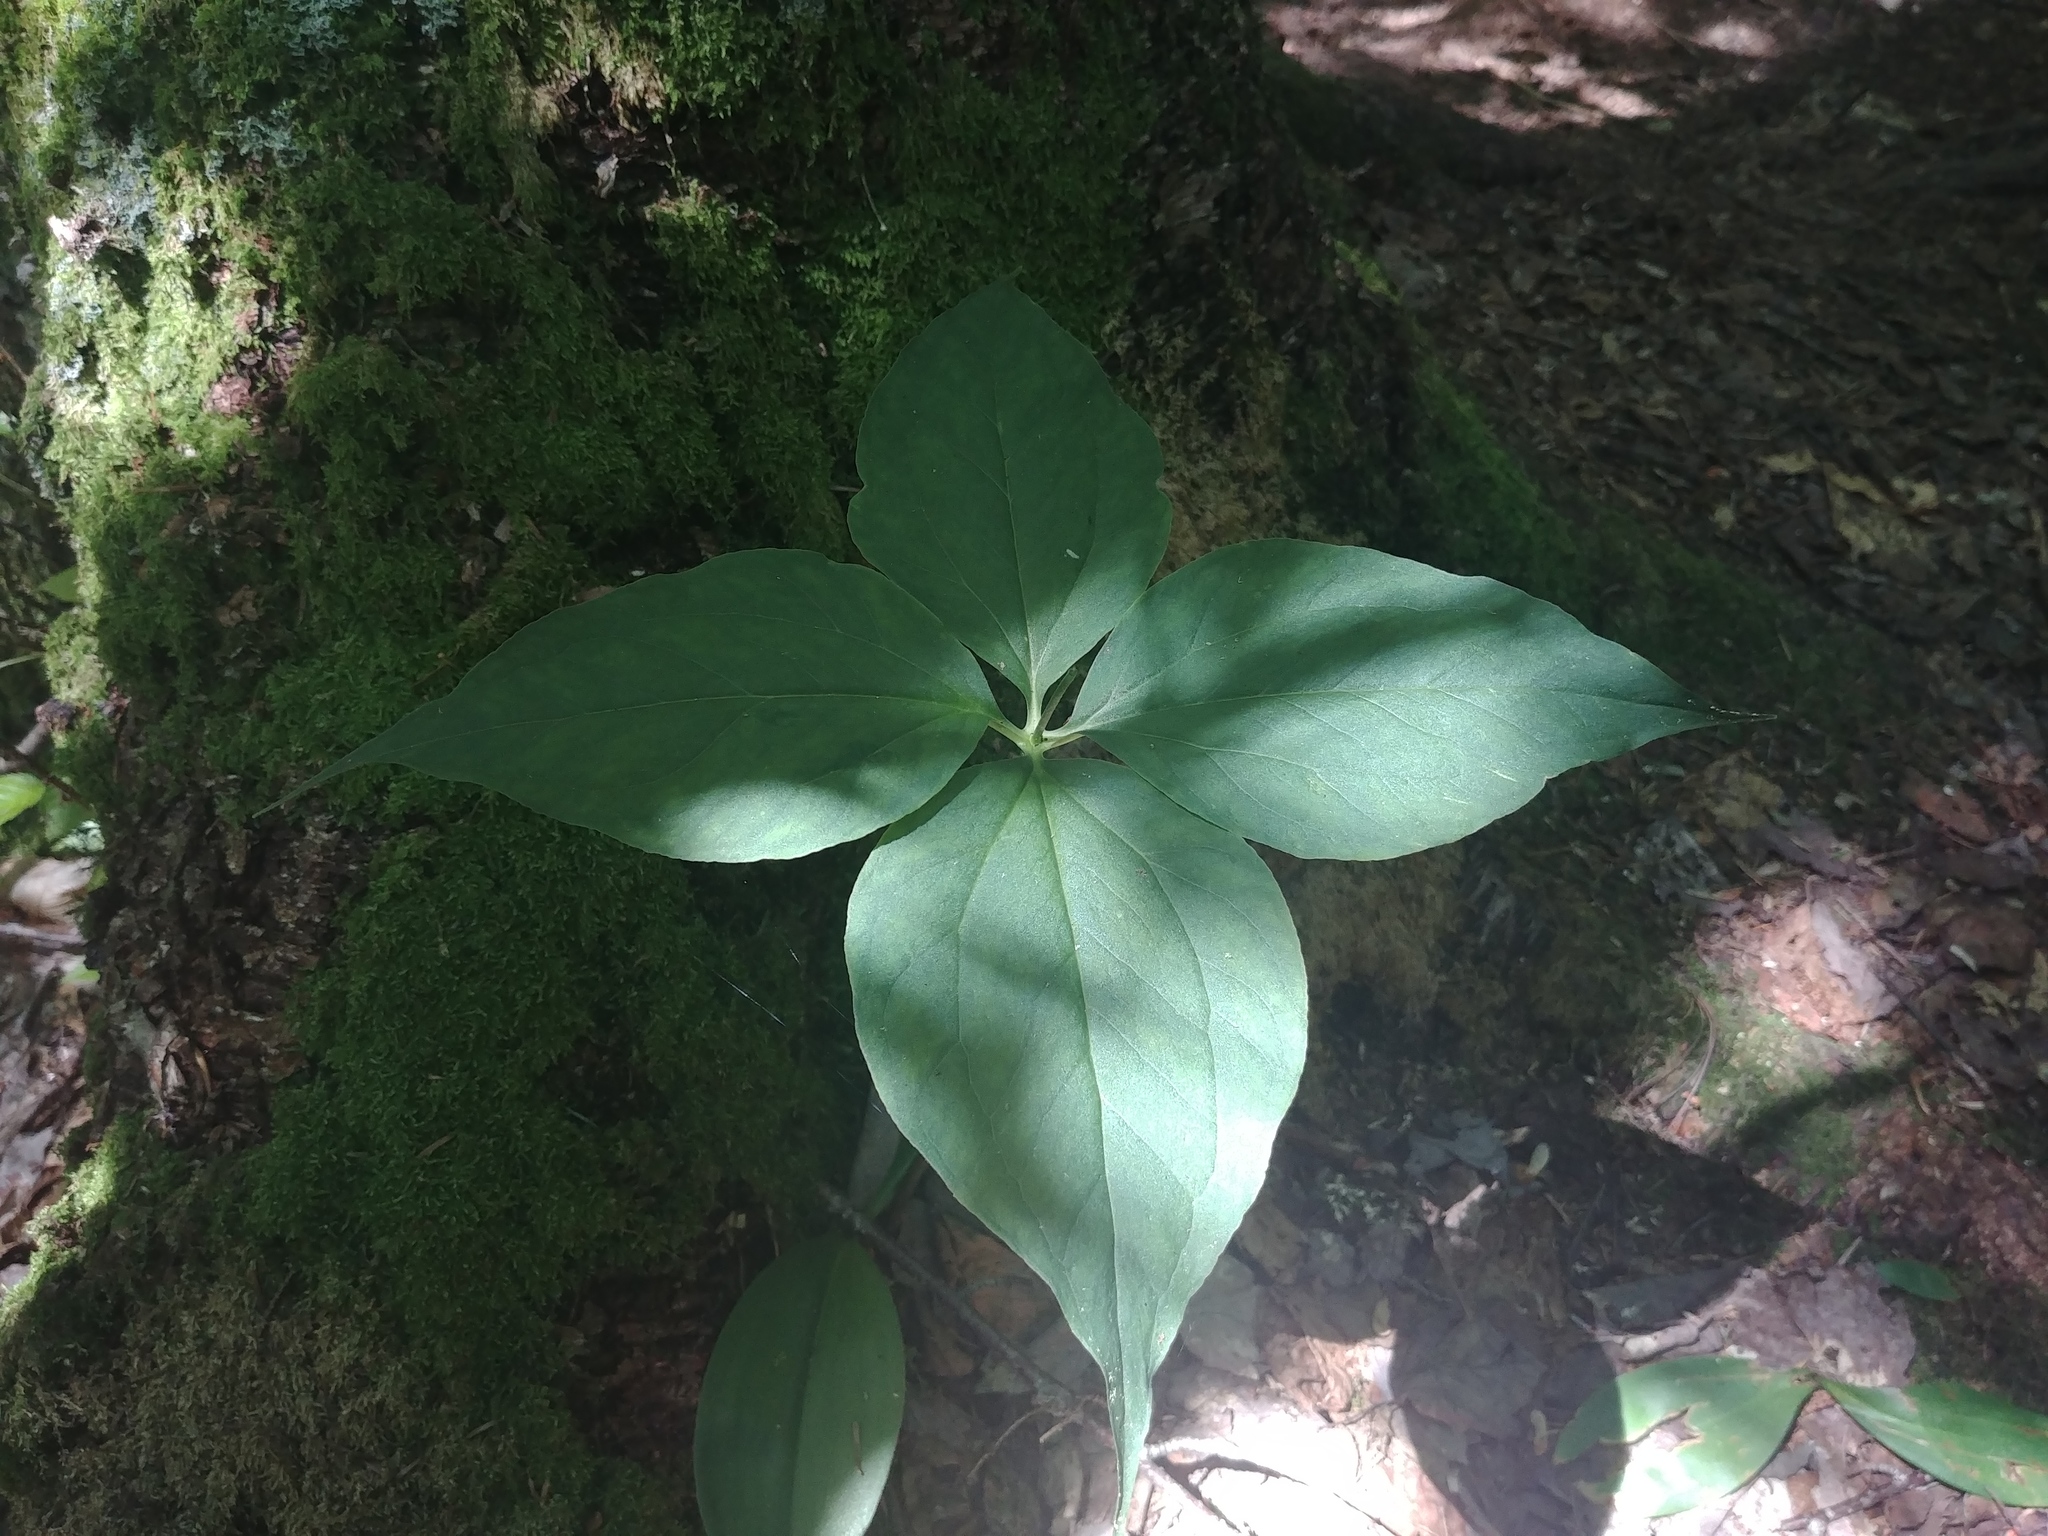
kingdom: Plantae
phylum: Tracheophyta
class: Liliopsida
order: Liliales
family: Melanthiaceae
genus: Trillium
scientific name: Trillium undulatum
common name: Paint trillium
